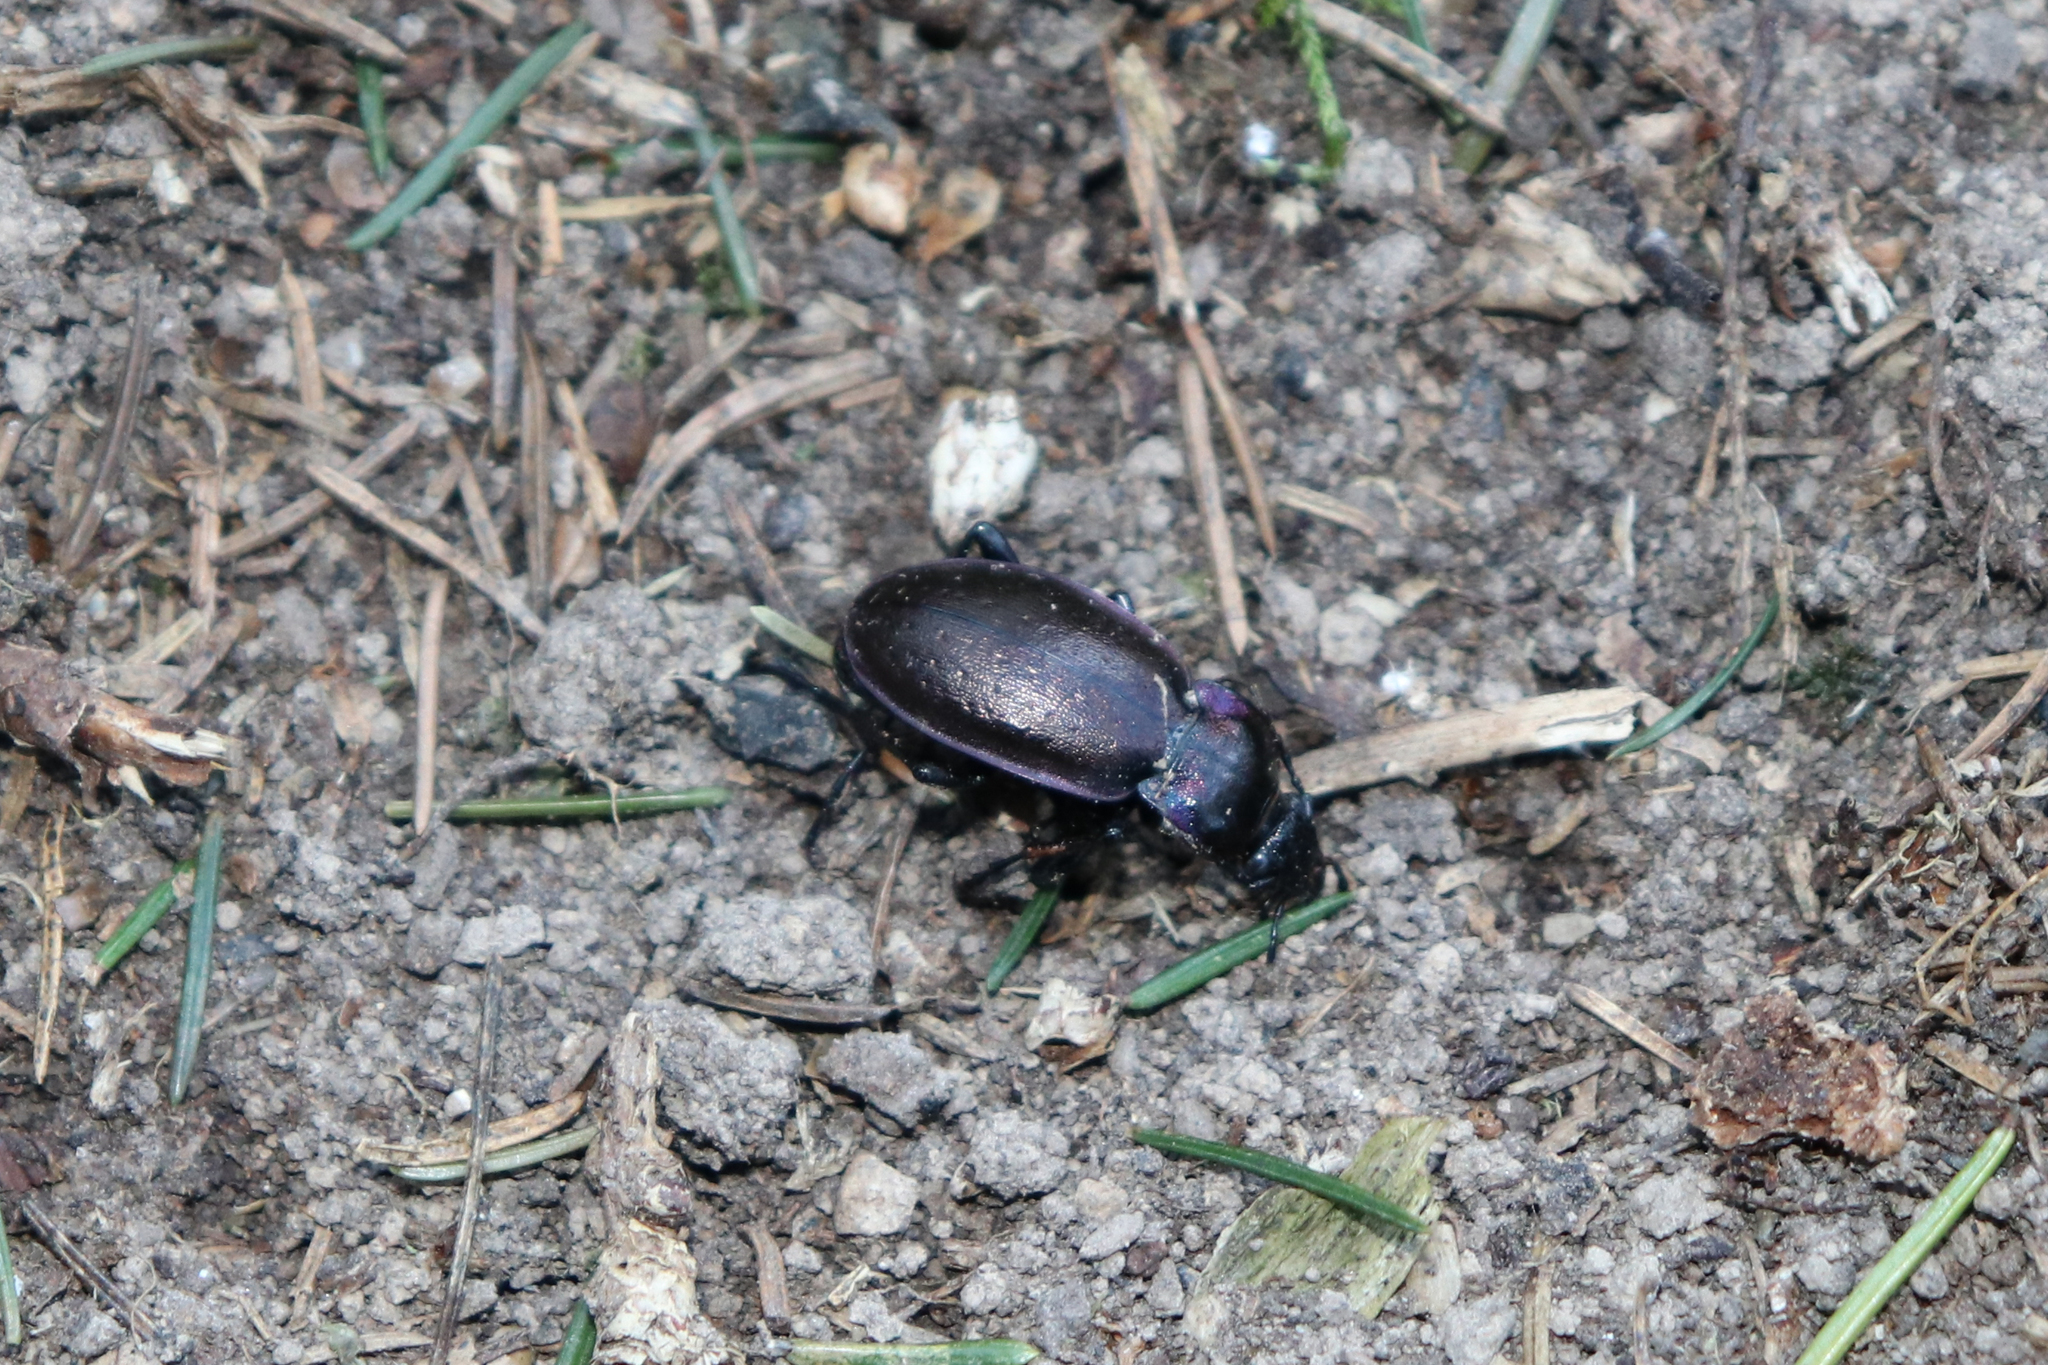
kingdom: Animalia
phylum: Arthropoda
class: Insecta
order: Coleoptera
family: Carabidae
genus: Carabus
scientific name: Carabus nemoralis
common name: European ground beetle
